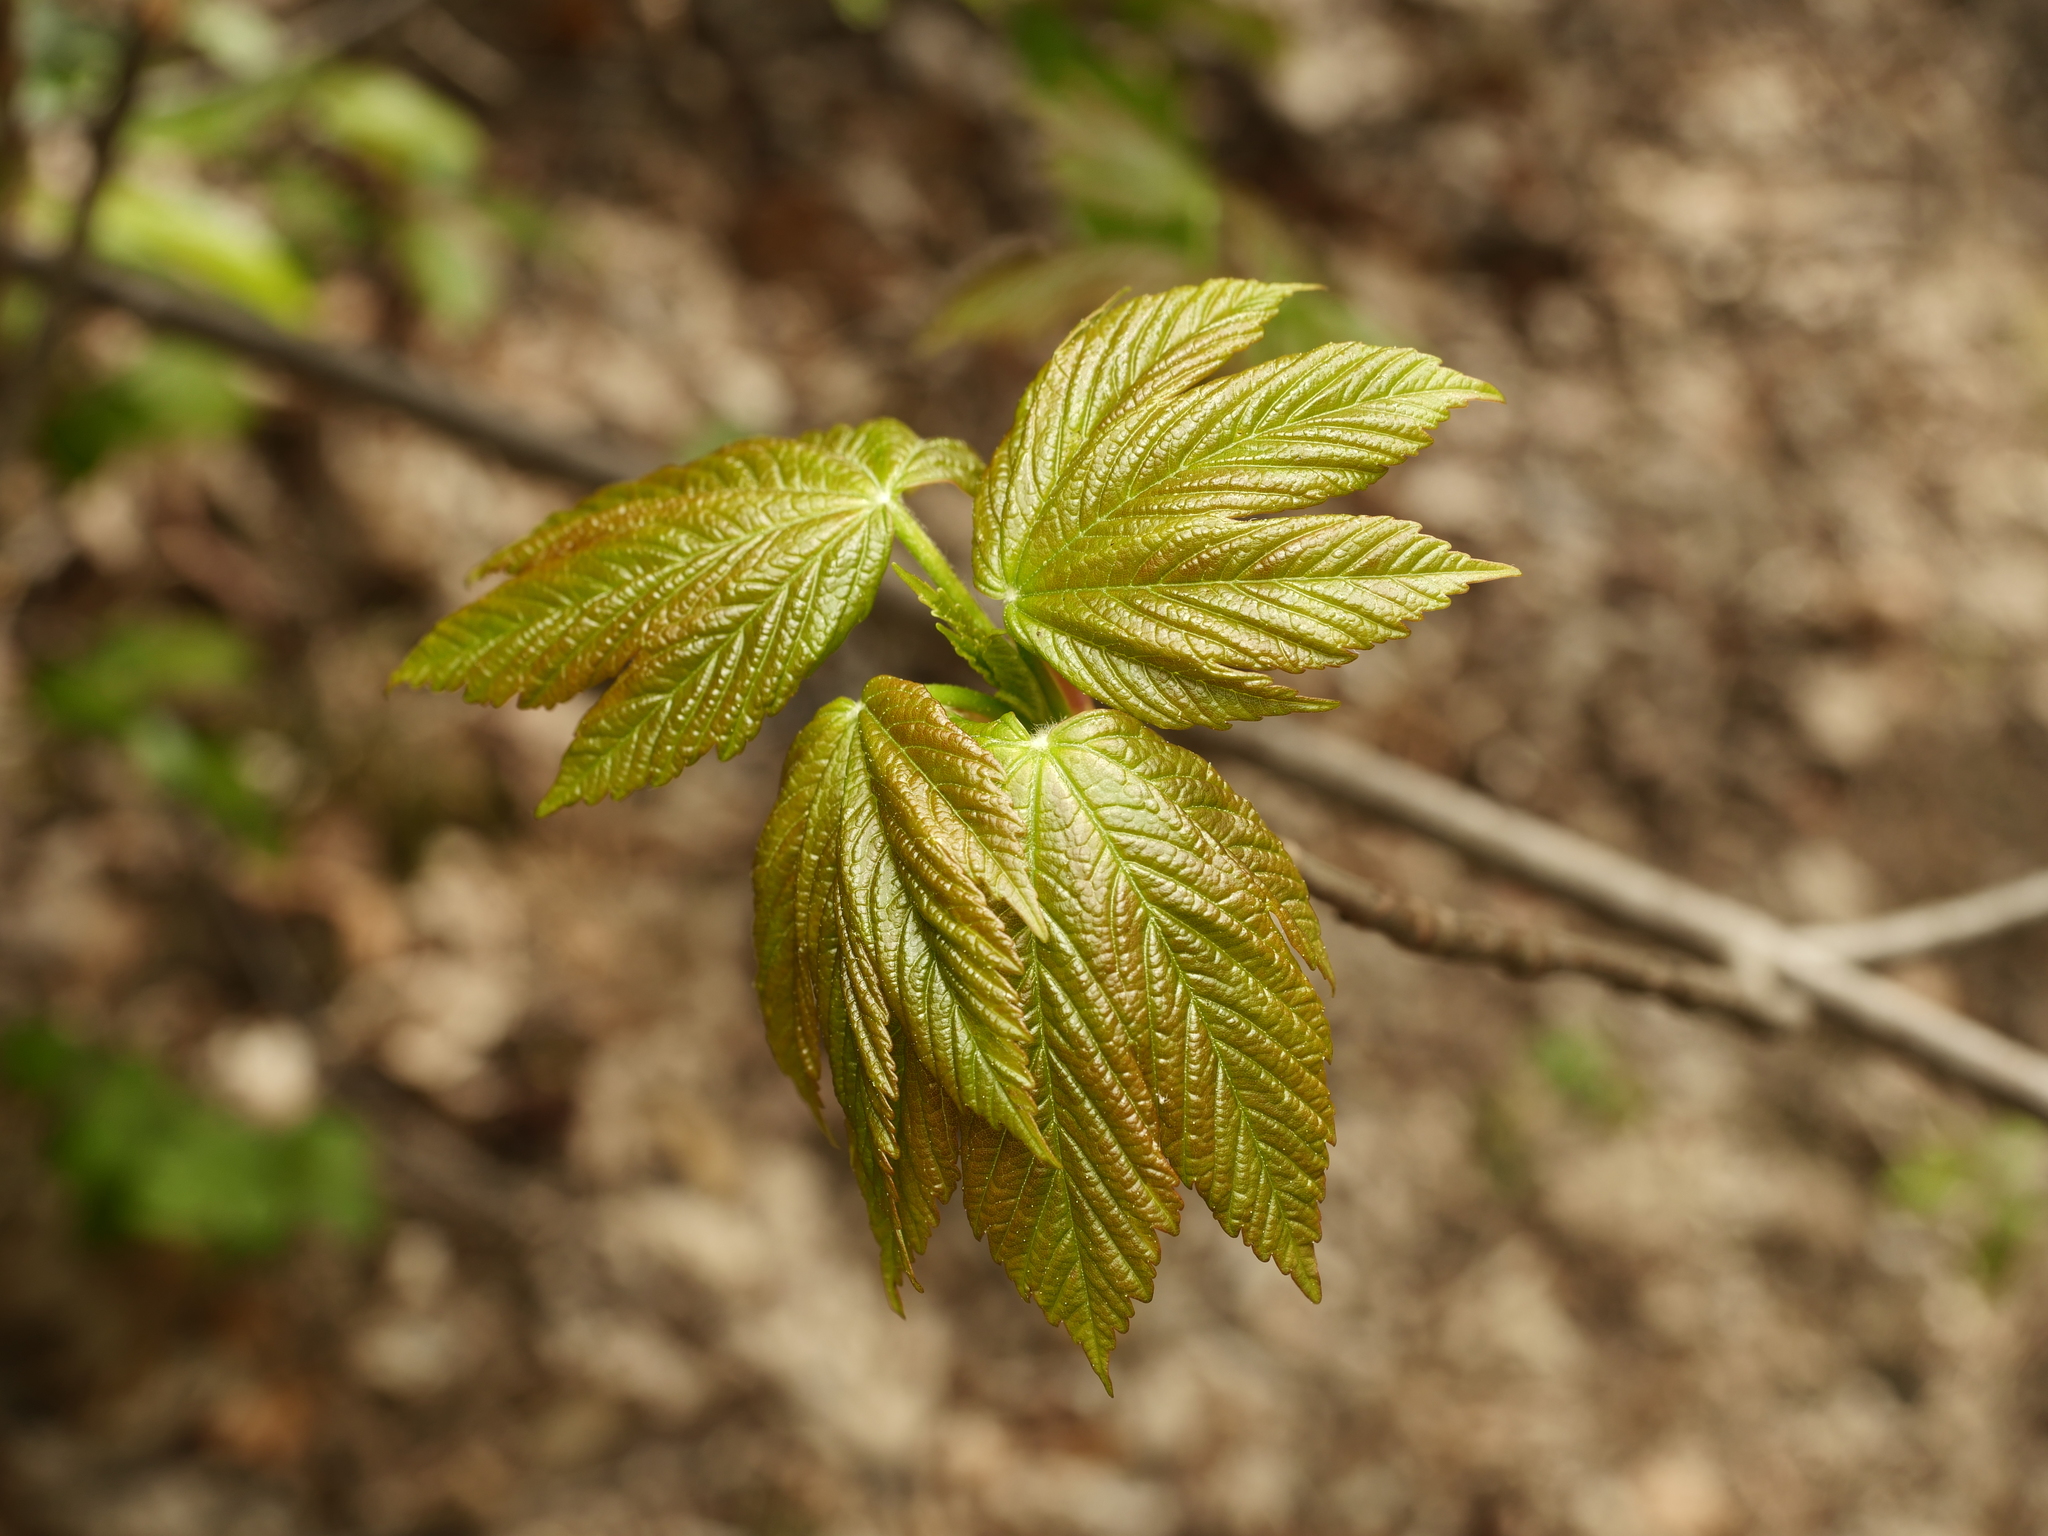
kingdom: Plantae
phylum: Tracheophyta
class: Magnoliopsida
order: Sapindales
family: Sapindaceae
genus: Acer
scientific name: Acer pseudoplatanus
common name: Sycamore
